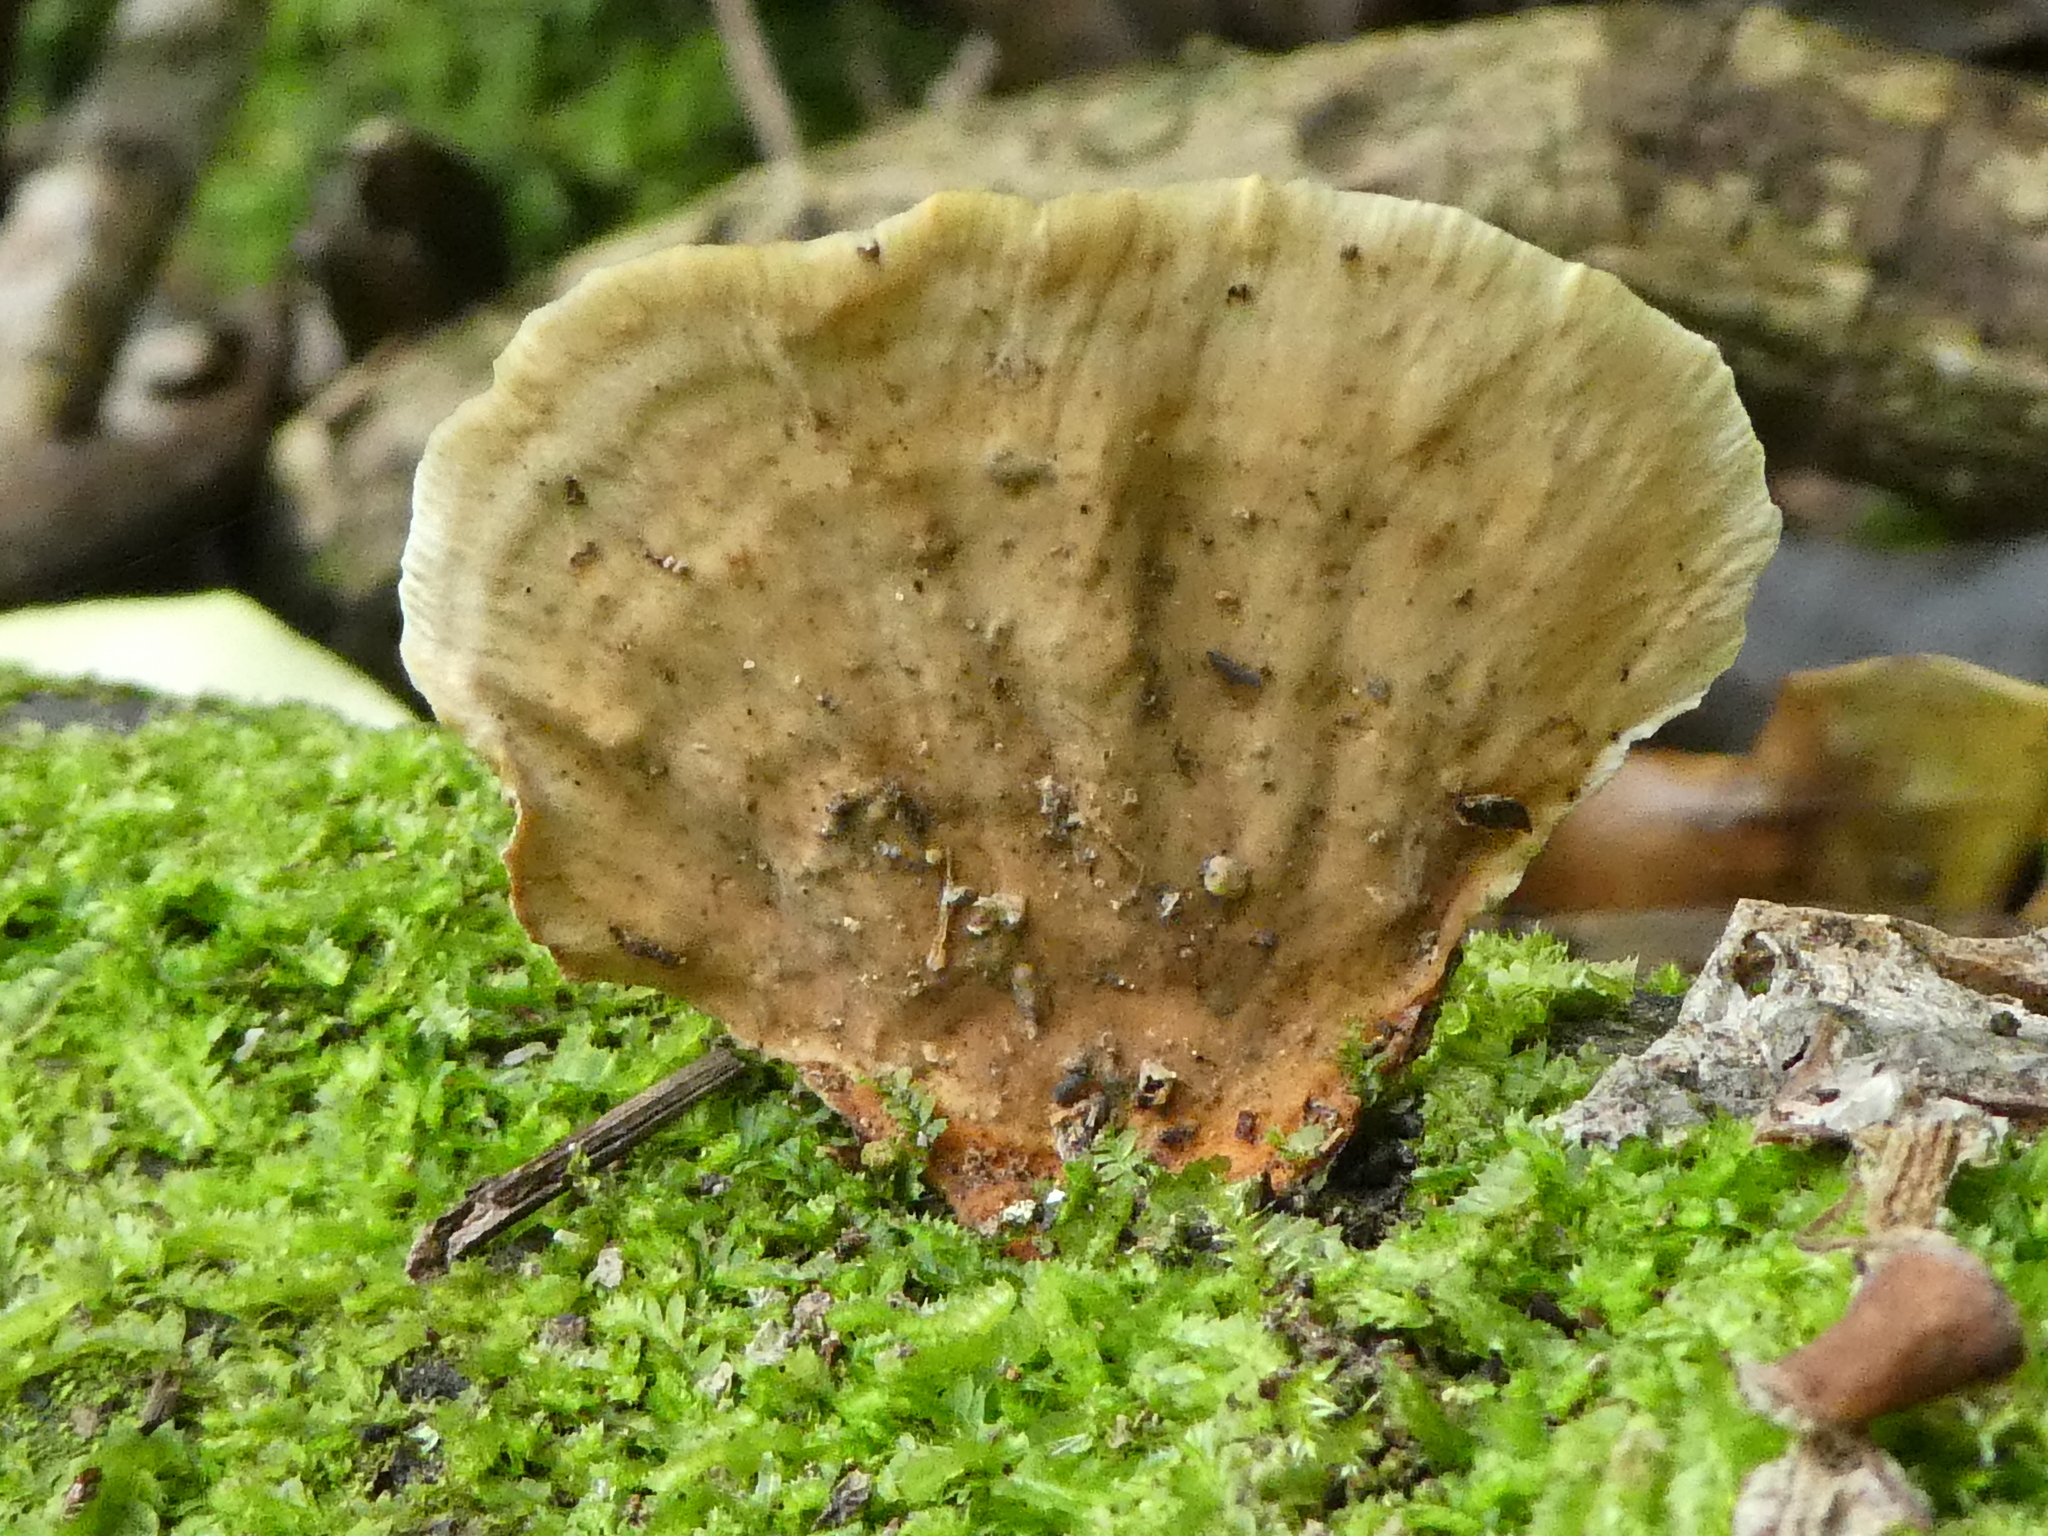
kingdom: Fungi
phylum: Basidiomycota
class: Agaricomycetes
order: Russulales
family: Stereaceae
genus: Stereum
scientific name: Stereum versicolor
